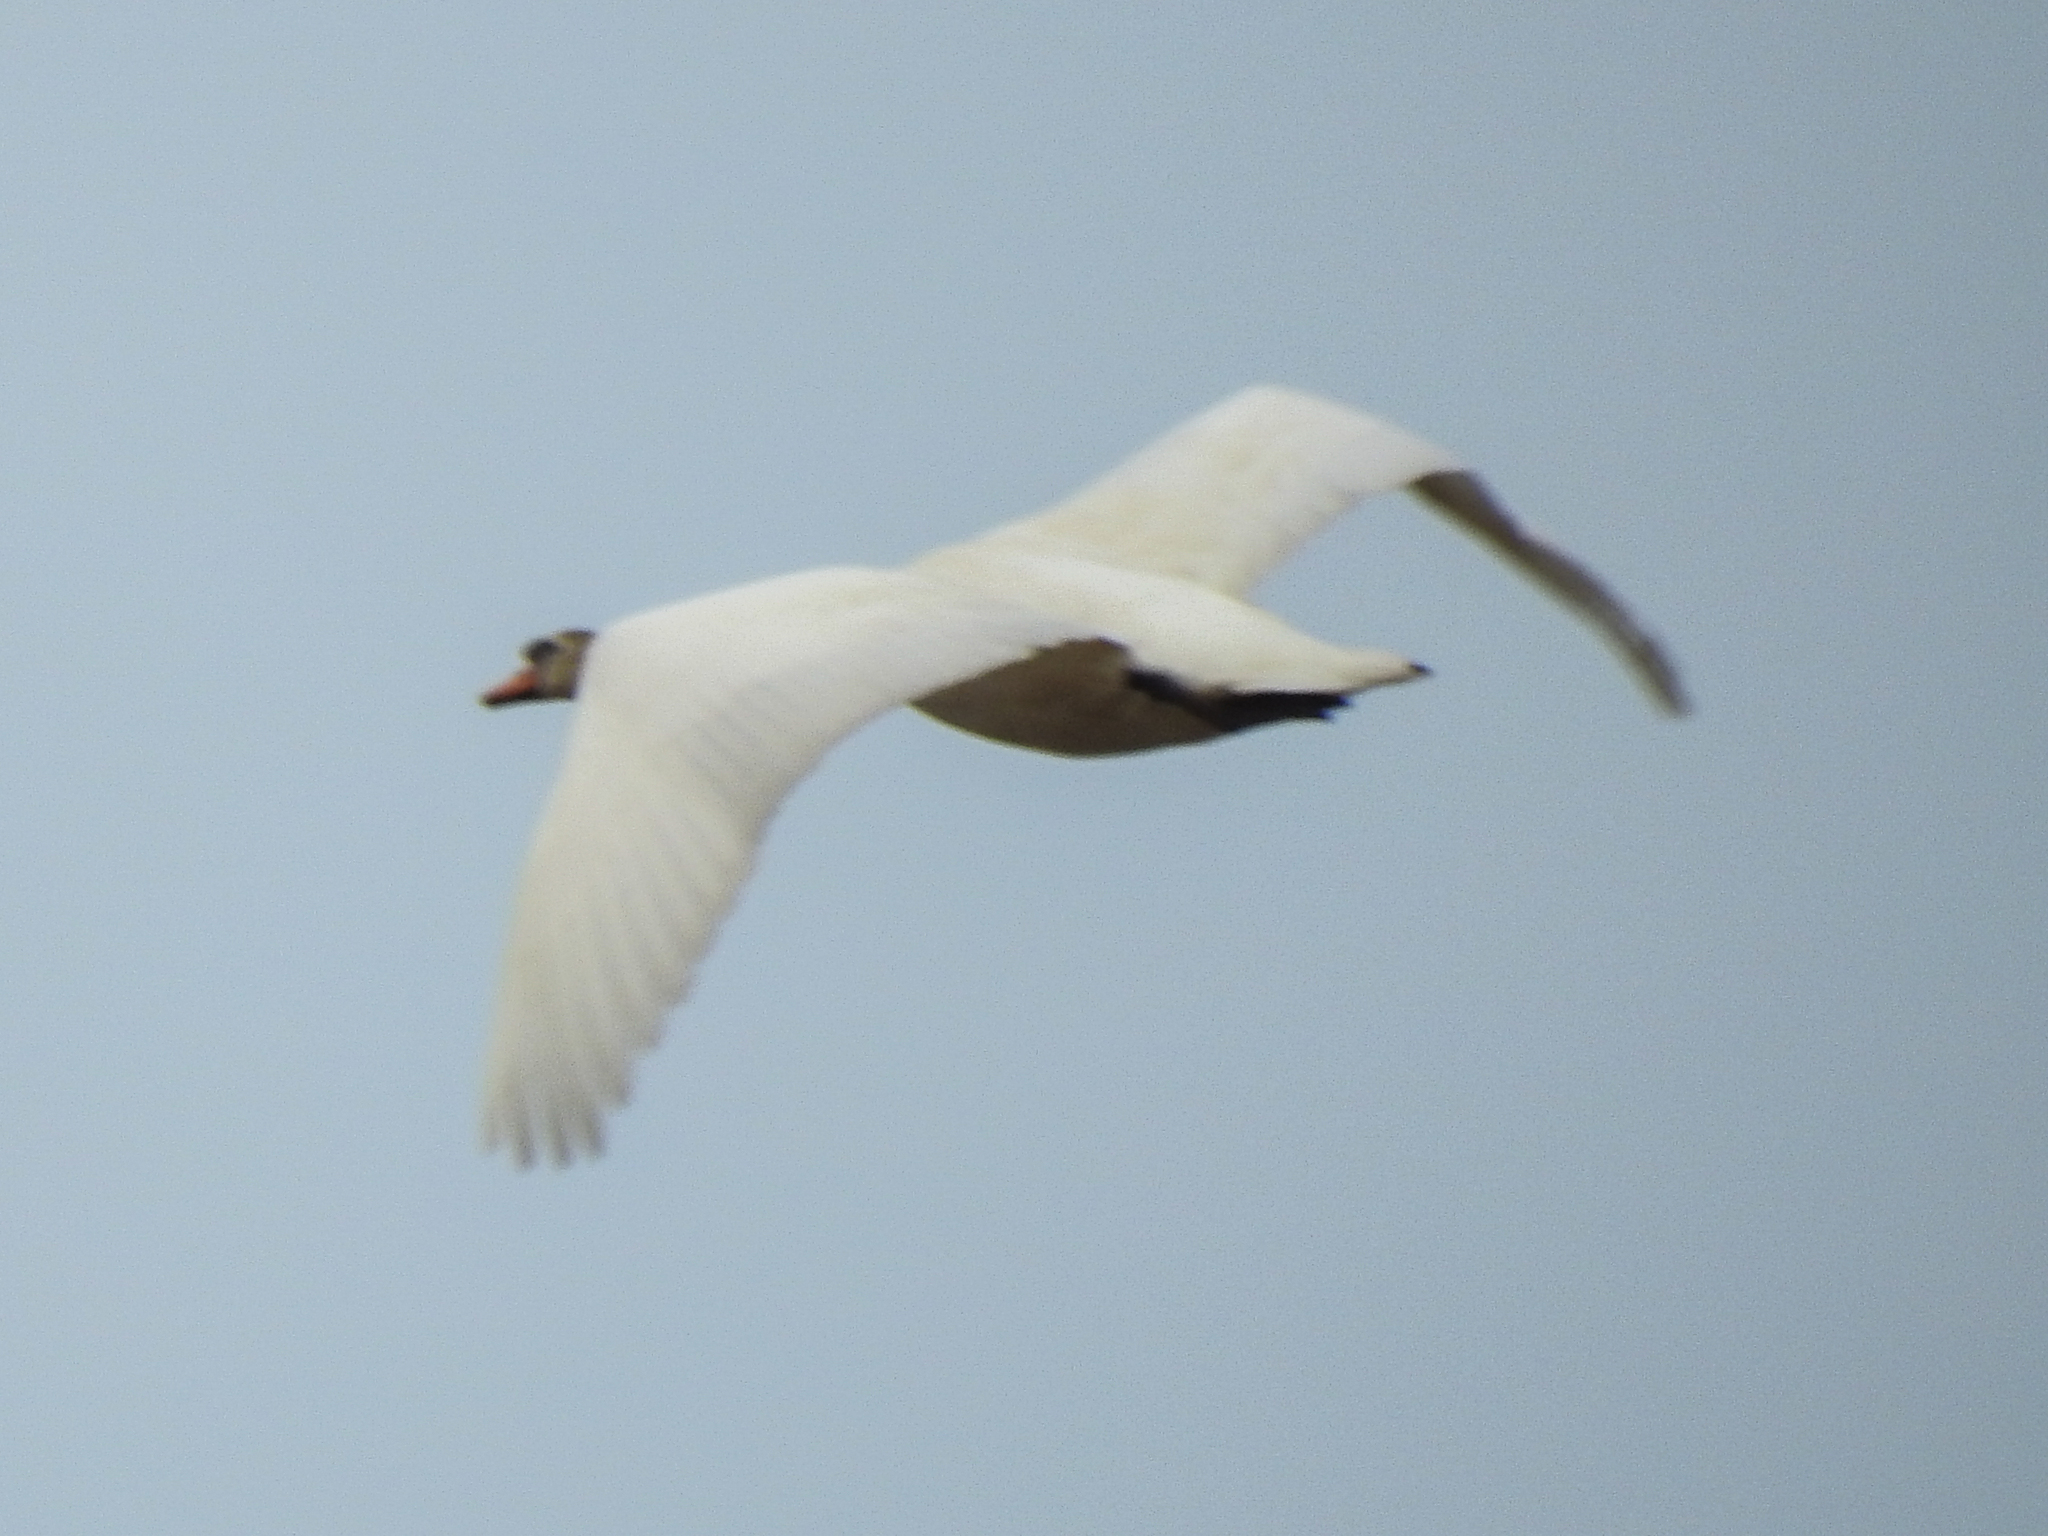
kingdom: Animalia
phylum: Chordata
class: Aves
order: Anseriformes
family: Anatidae
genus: Cygnus
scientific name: Cygnus olor
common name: Mute swan
